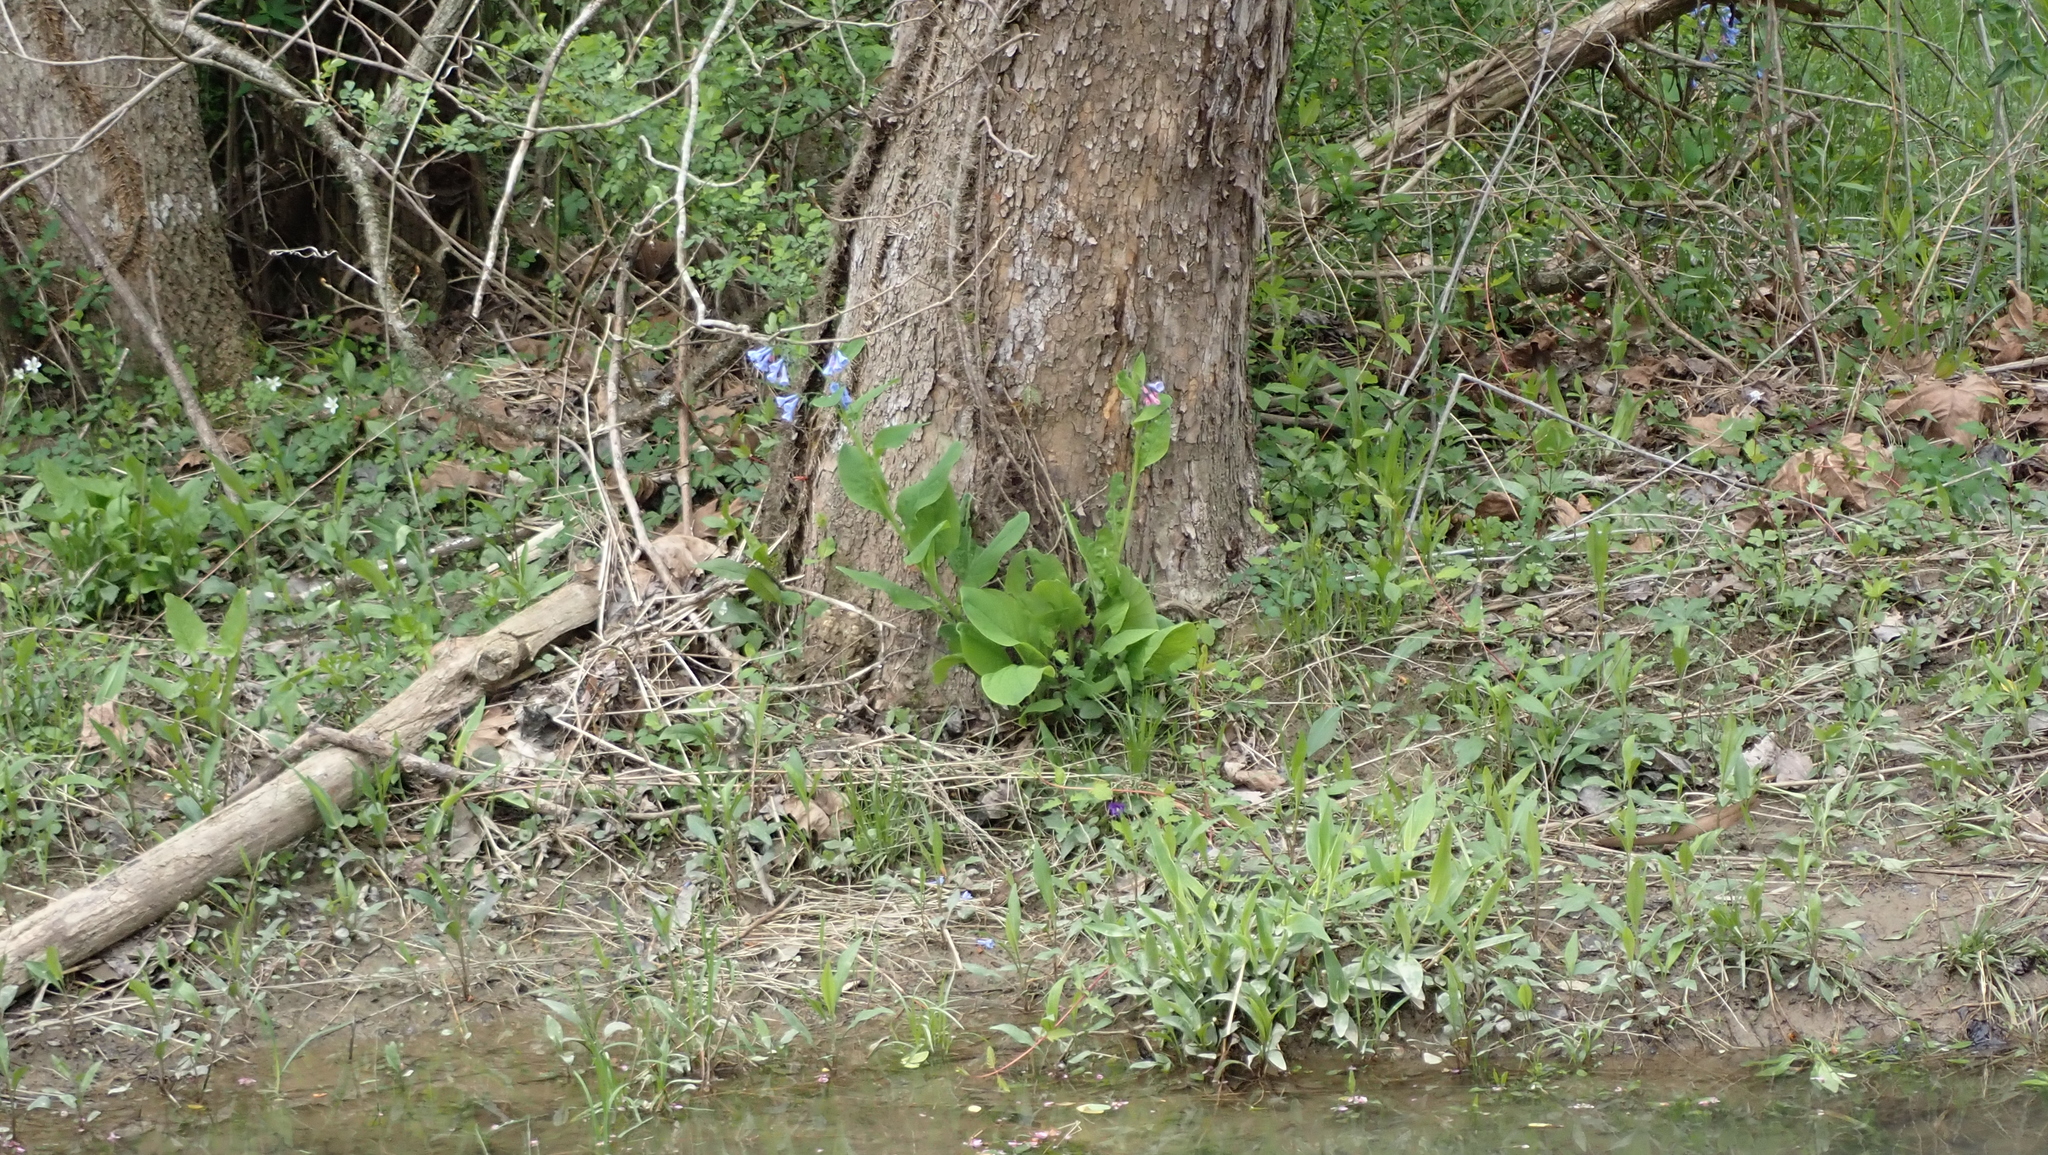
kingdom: Plantae
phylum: Tracheophyta
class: Magnoliopsida
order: Boraginales
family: Boraginaceae
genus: Mertensia
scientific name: Mertensia virginica
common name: Virginia bluebells
